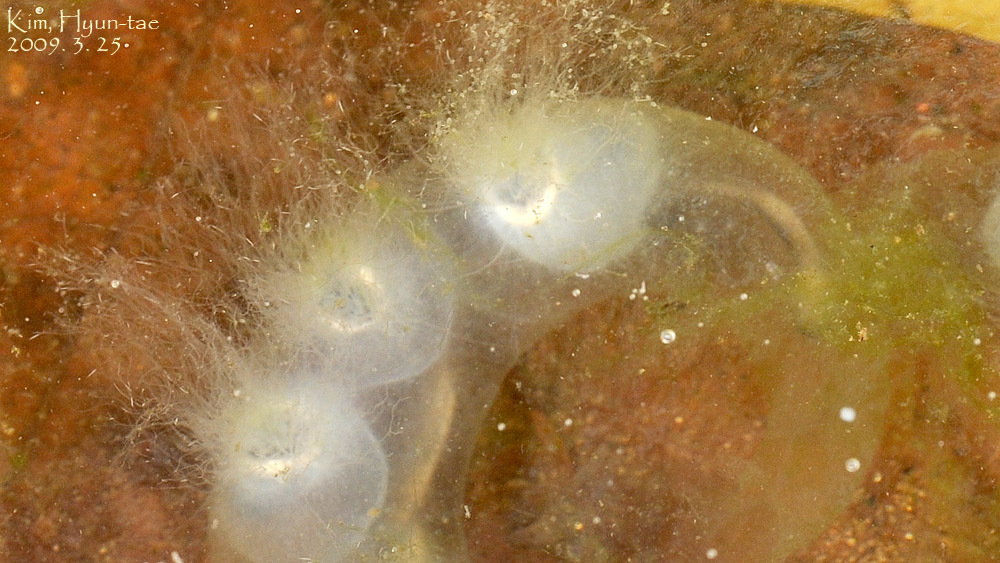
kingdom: Animalia
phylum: Chordata
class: Amphibia
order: Caudata
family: Hynobiidae
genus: Hynobius
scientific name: Hynobius leechii
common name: Gensan salamander
